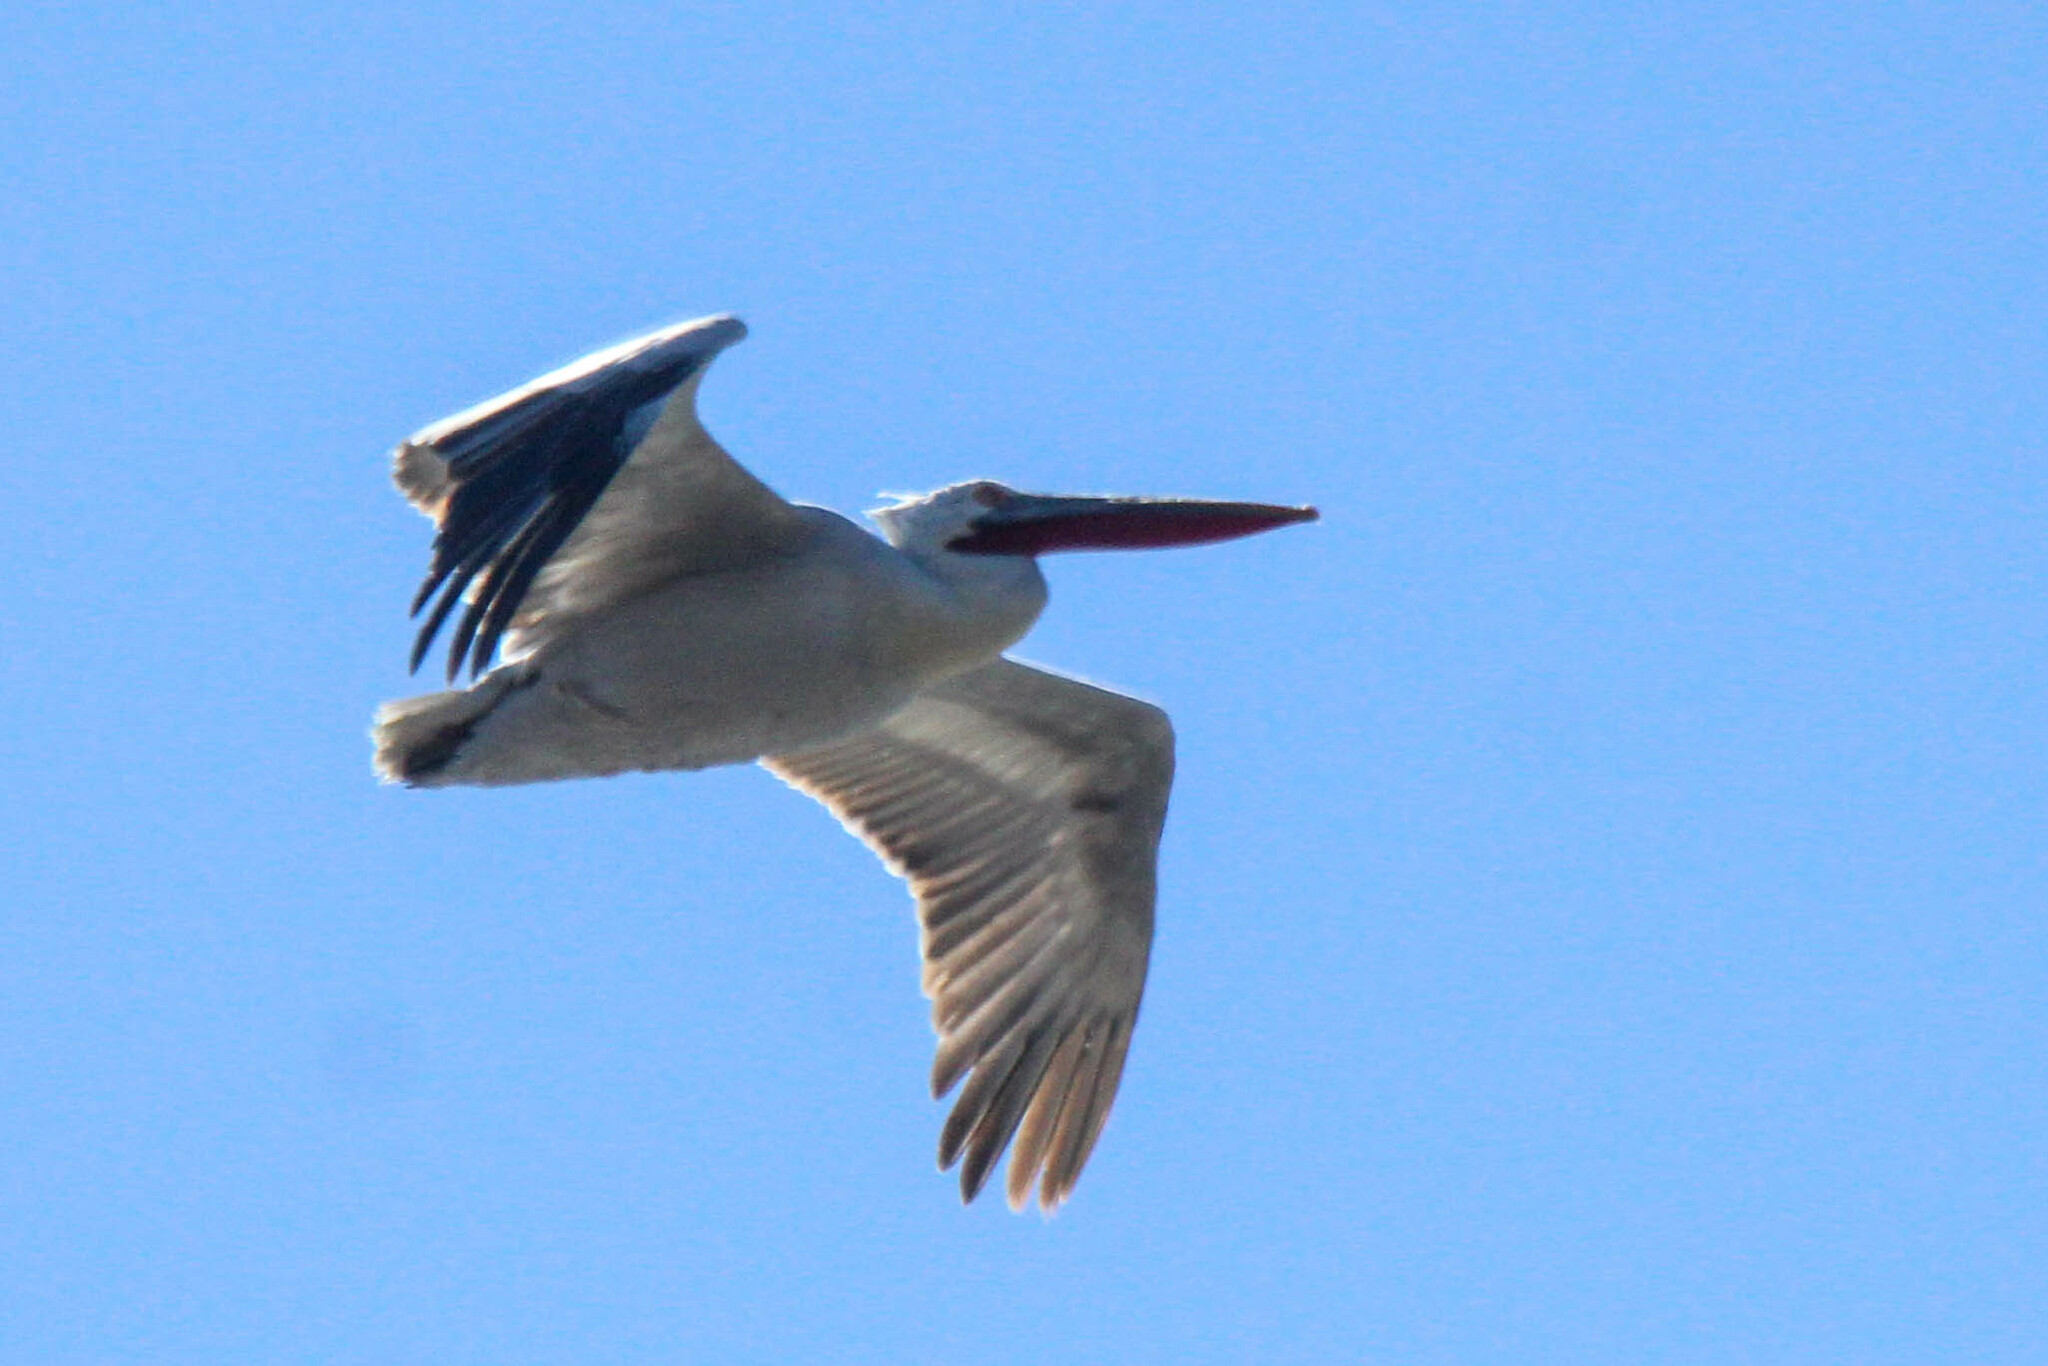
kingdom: Animalia
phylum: Chordata
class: Aves
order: Pelecaniformes
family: Pelecanidae
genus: Pelecanus
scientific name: Pelecanus crispus
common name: Dalmatian pelican
